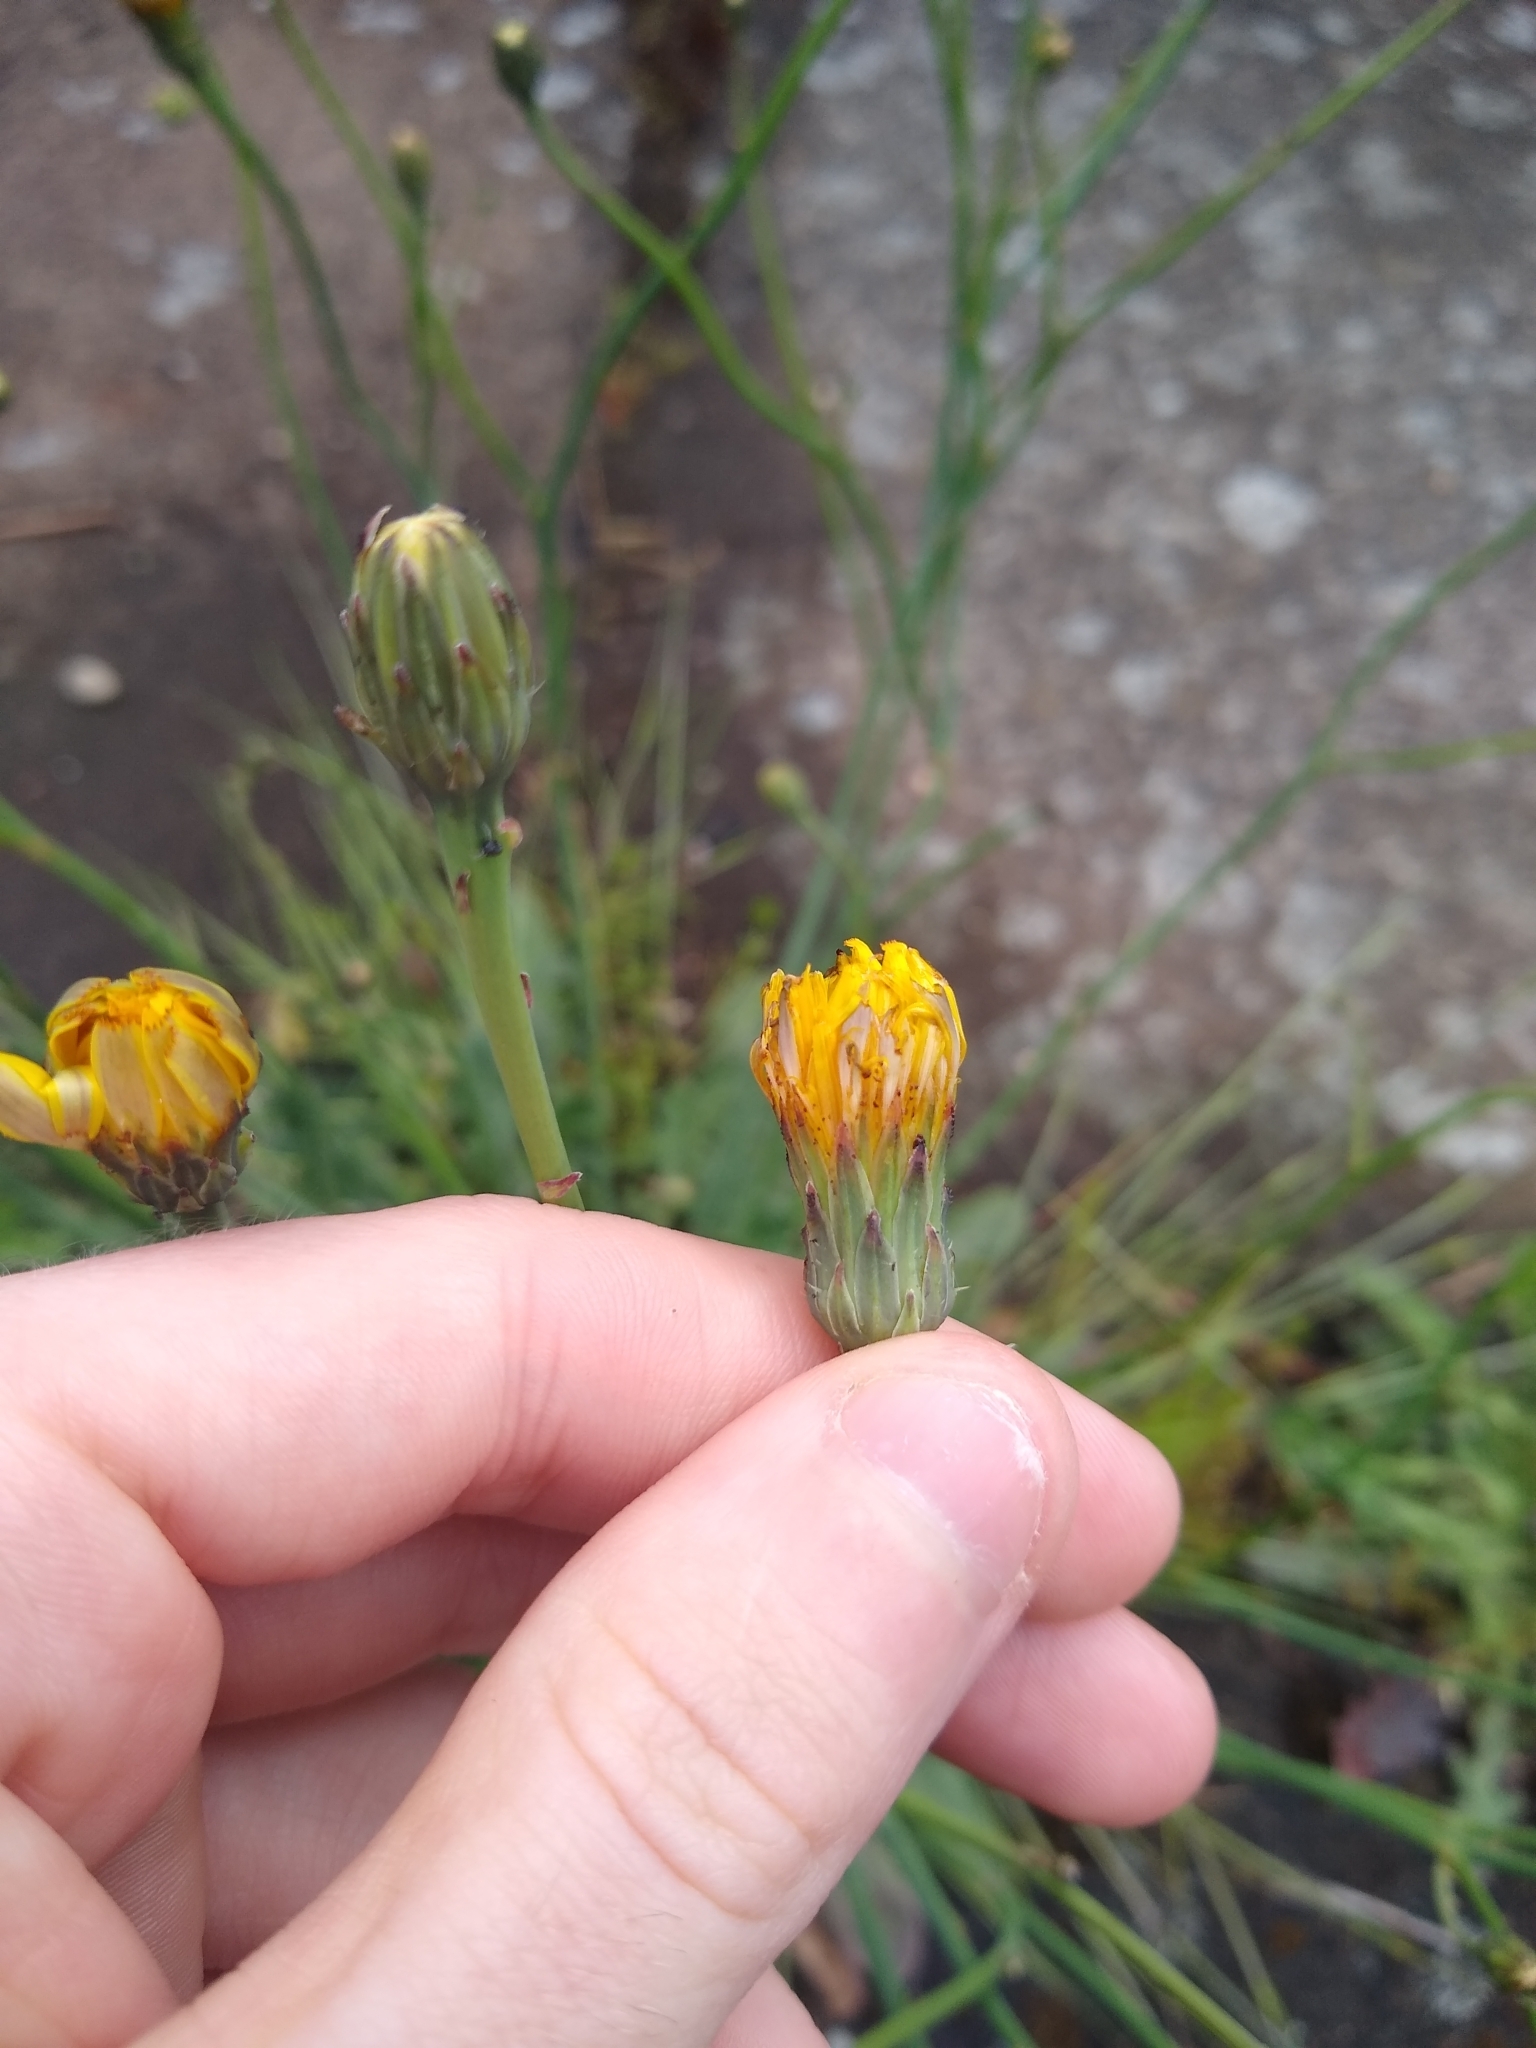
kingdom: Plantae
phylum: Tracheophyta
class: Magnoliopsida
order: Asterales
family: Asteraceae
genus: Hypochaeris
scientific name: Hypochaeris radicata
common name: Flatweed
